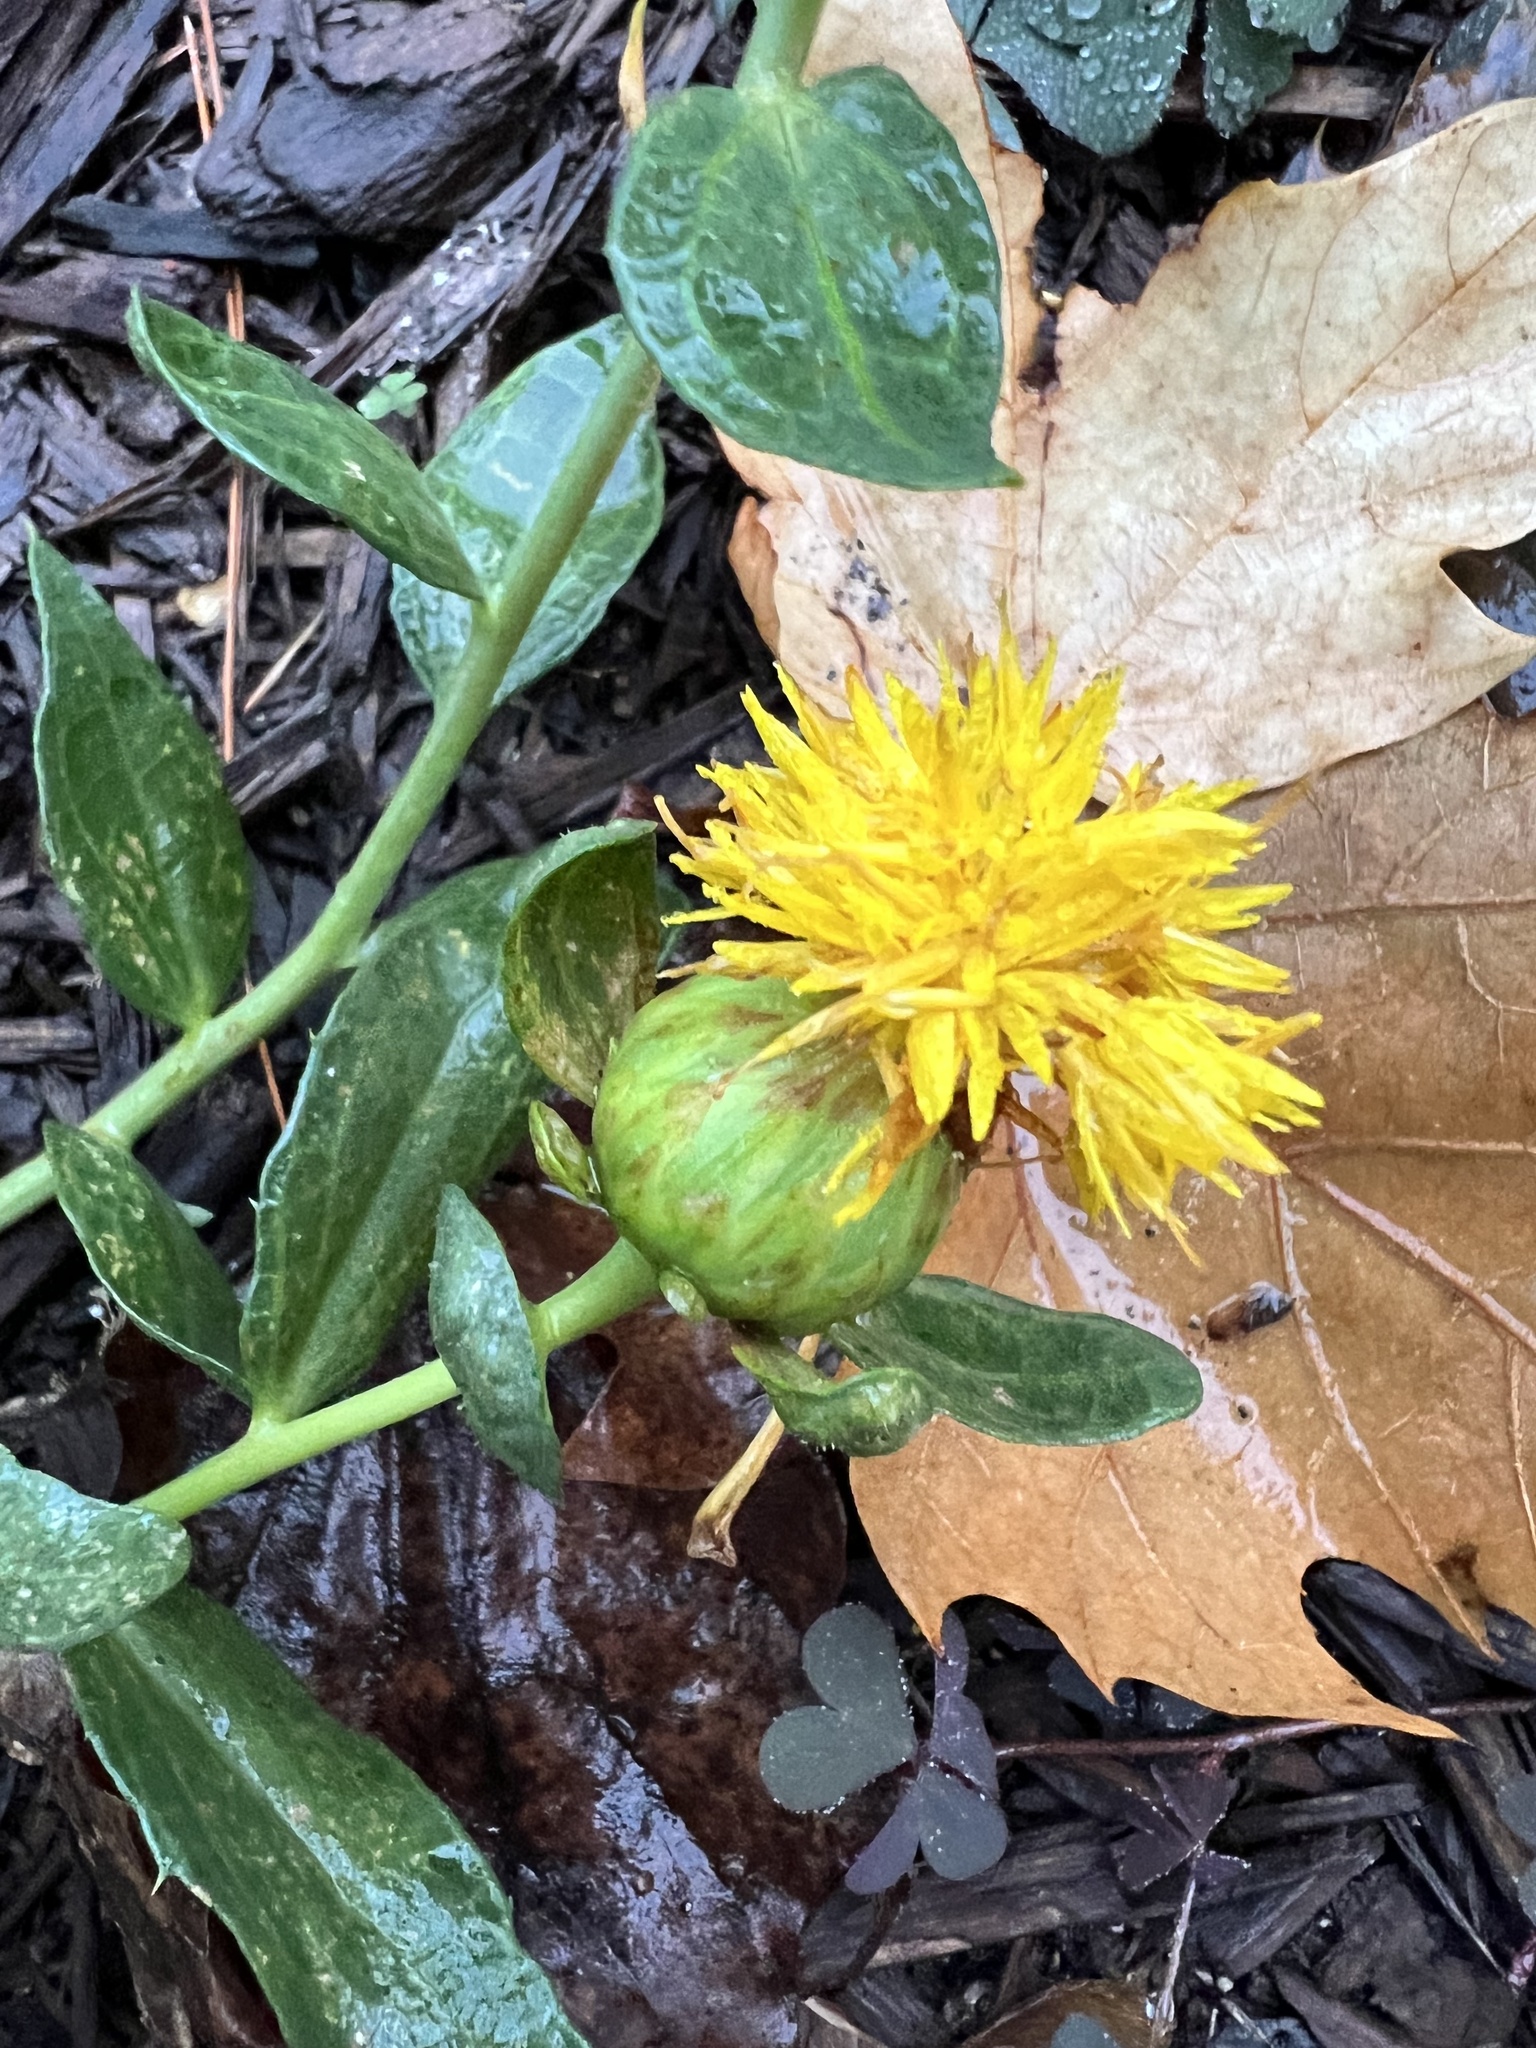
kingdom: Plantae
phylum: Tracheophyta
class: Magnoliopsida
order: Asterales
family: Asteraceae
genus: Carthamus
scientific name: Carthamus tinctorius
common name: Safflower
